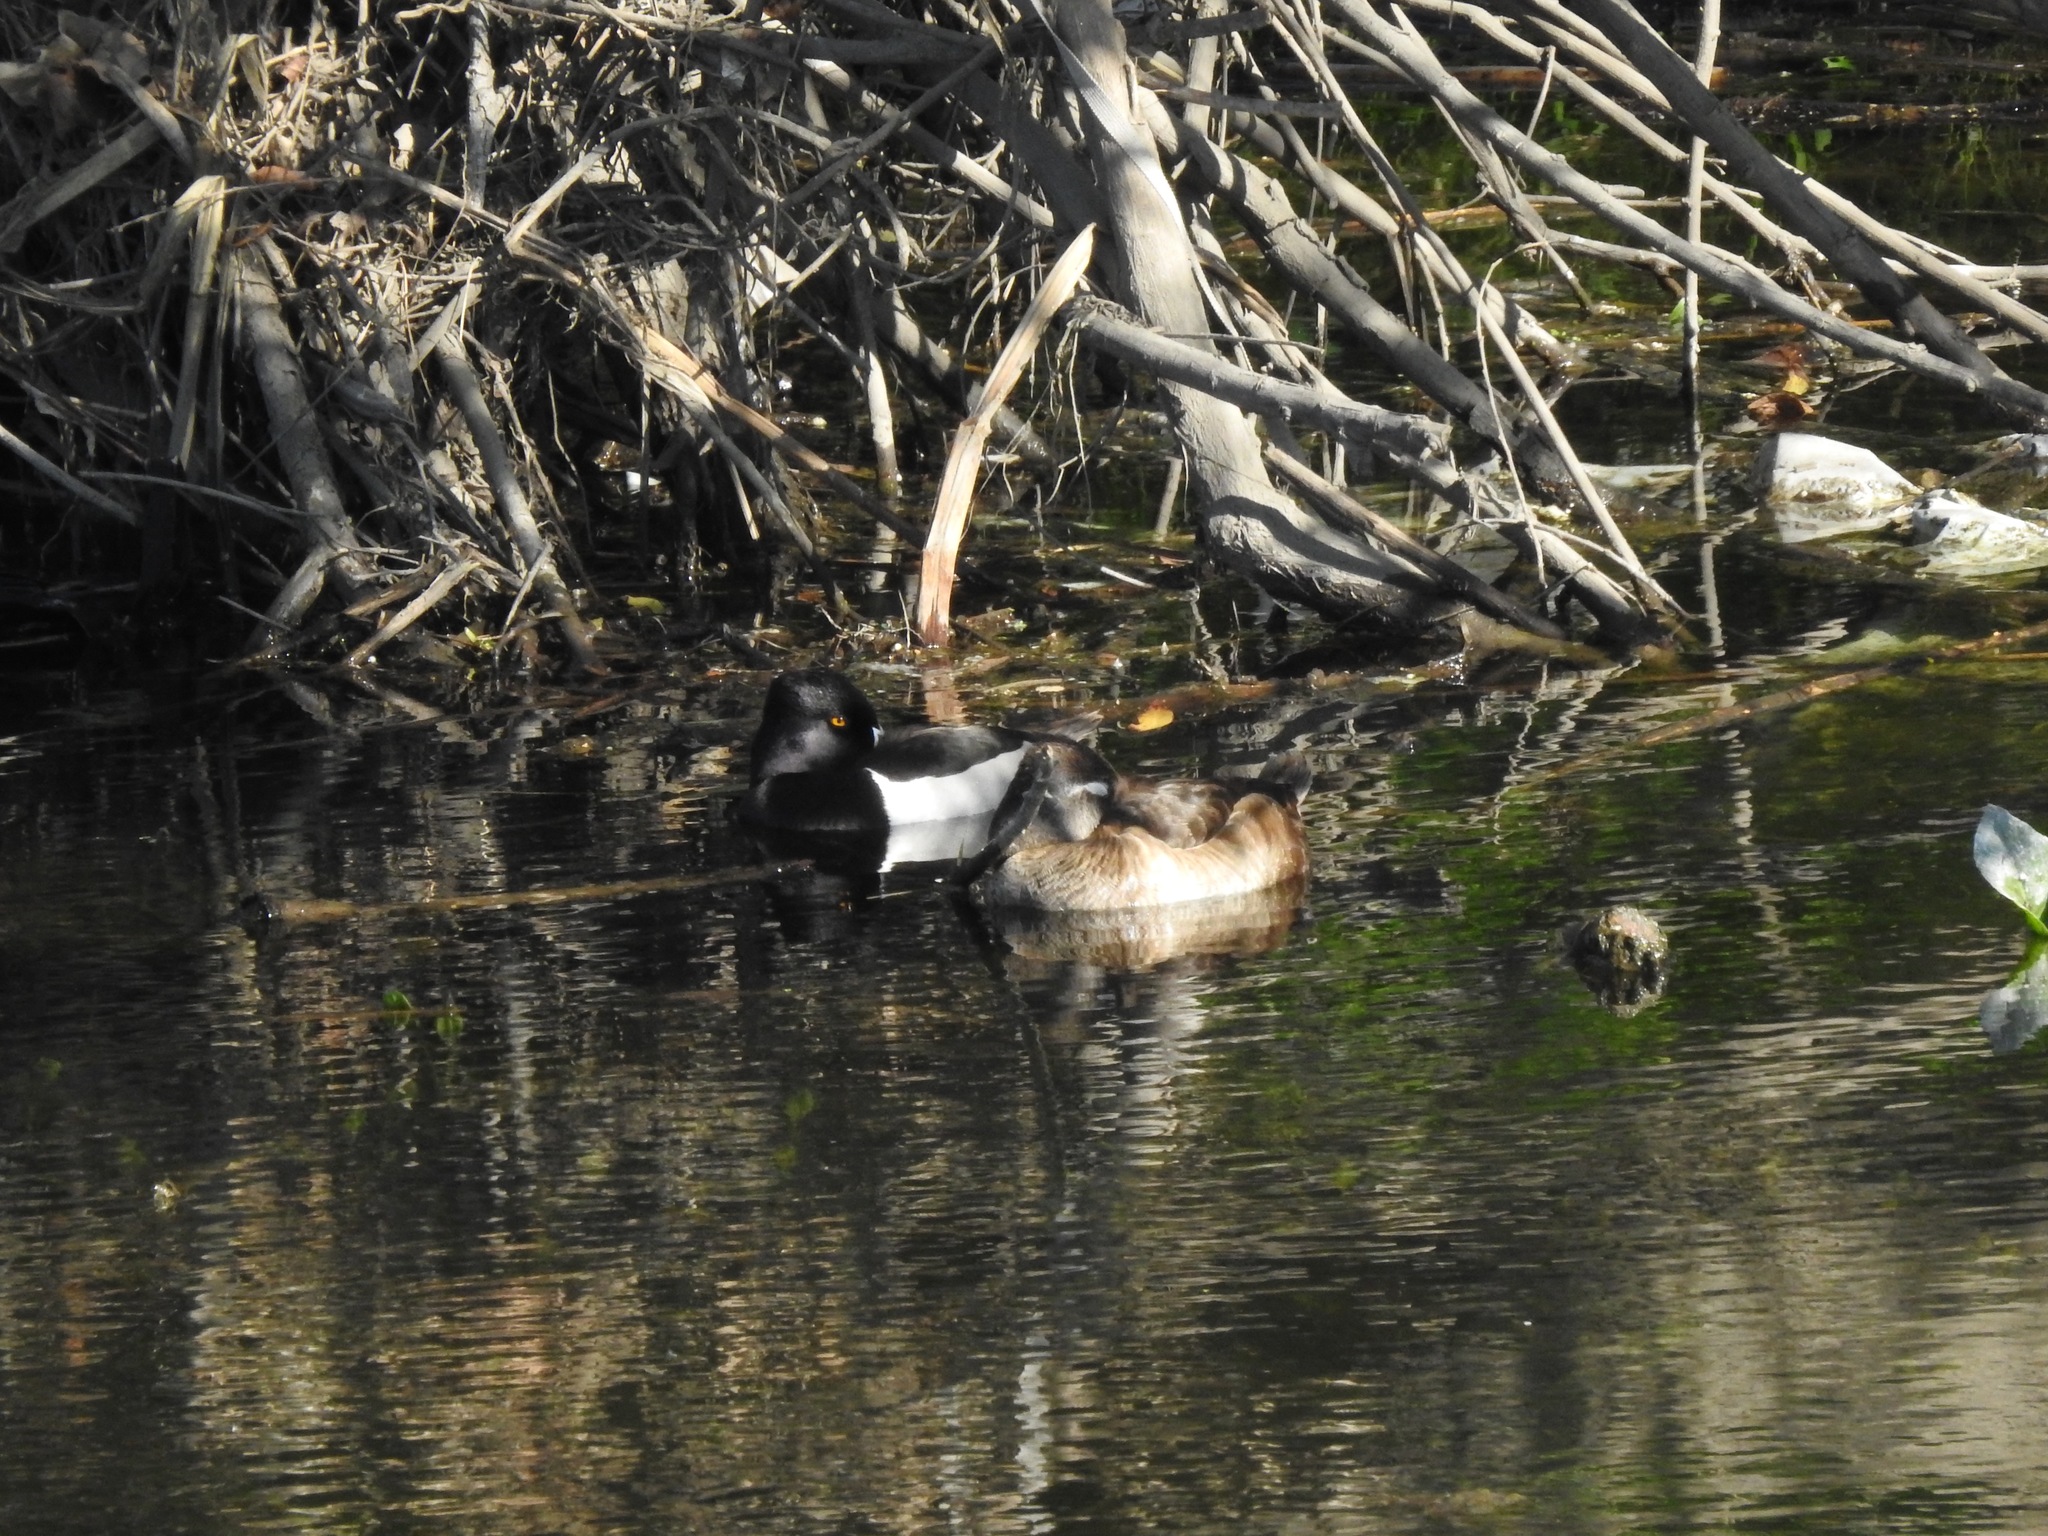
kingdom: Animalia
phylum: Chordata
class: Aves
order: Anseriformes
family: Anatidae
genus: Aythya
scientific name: Aythya collaris
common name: Ring-necked duck
